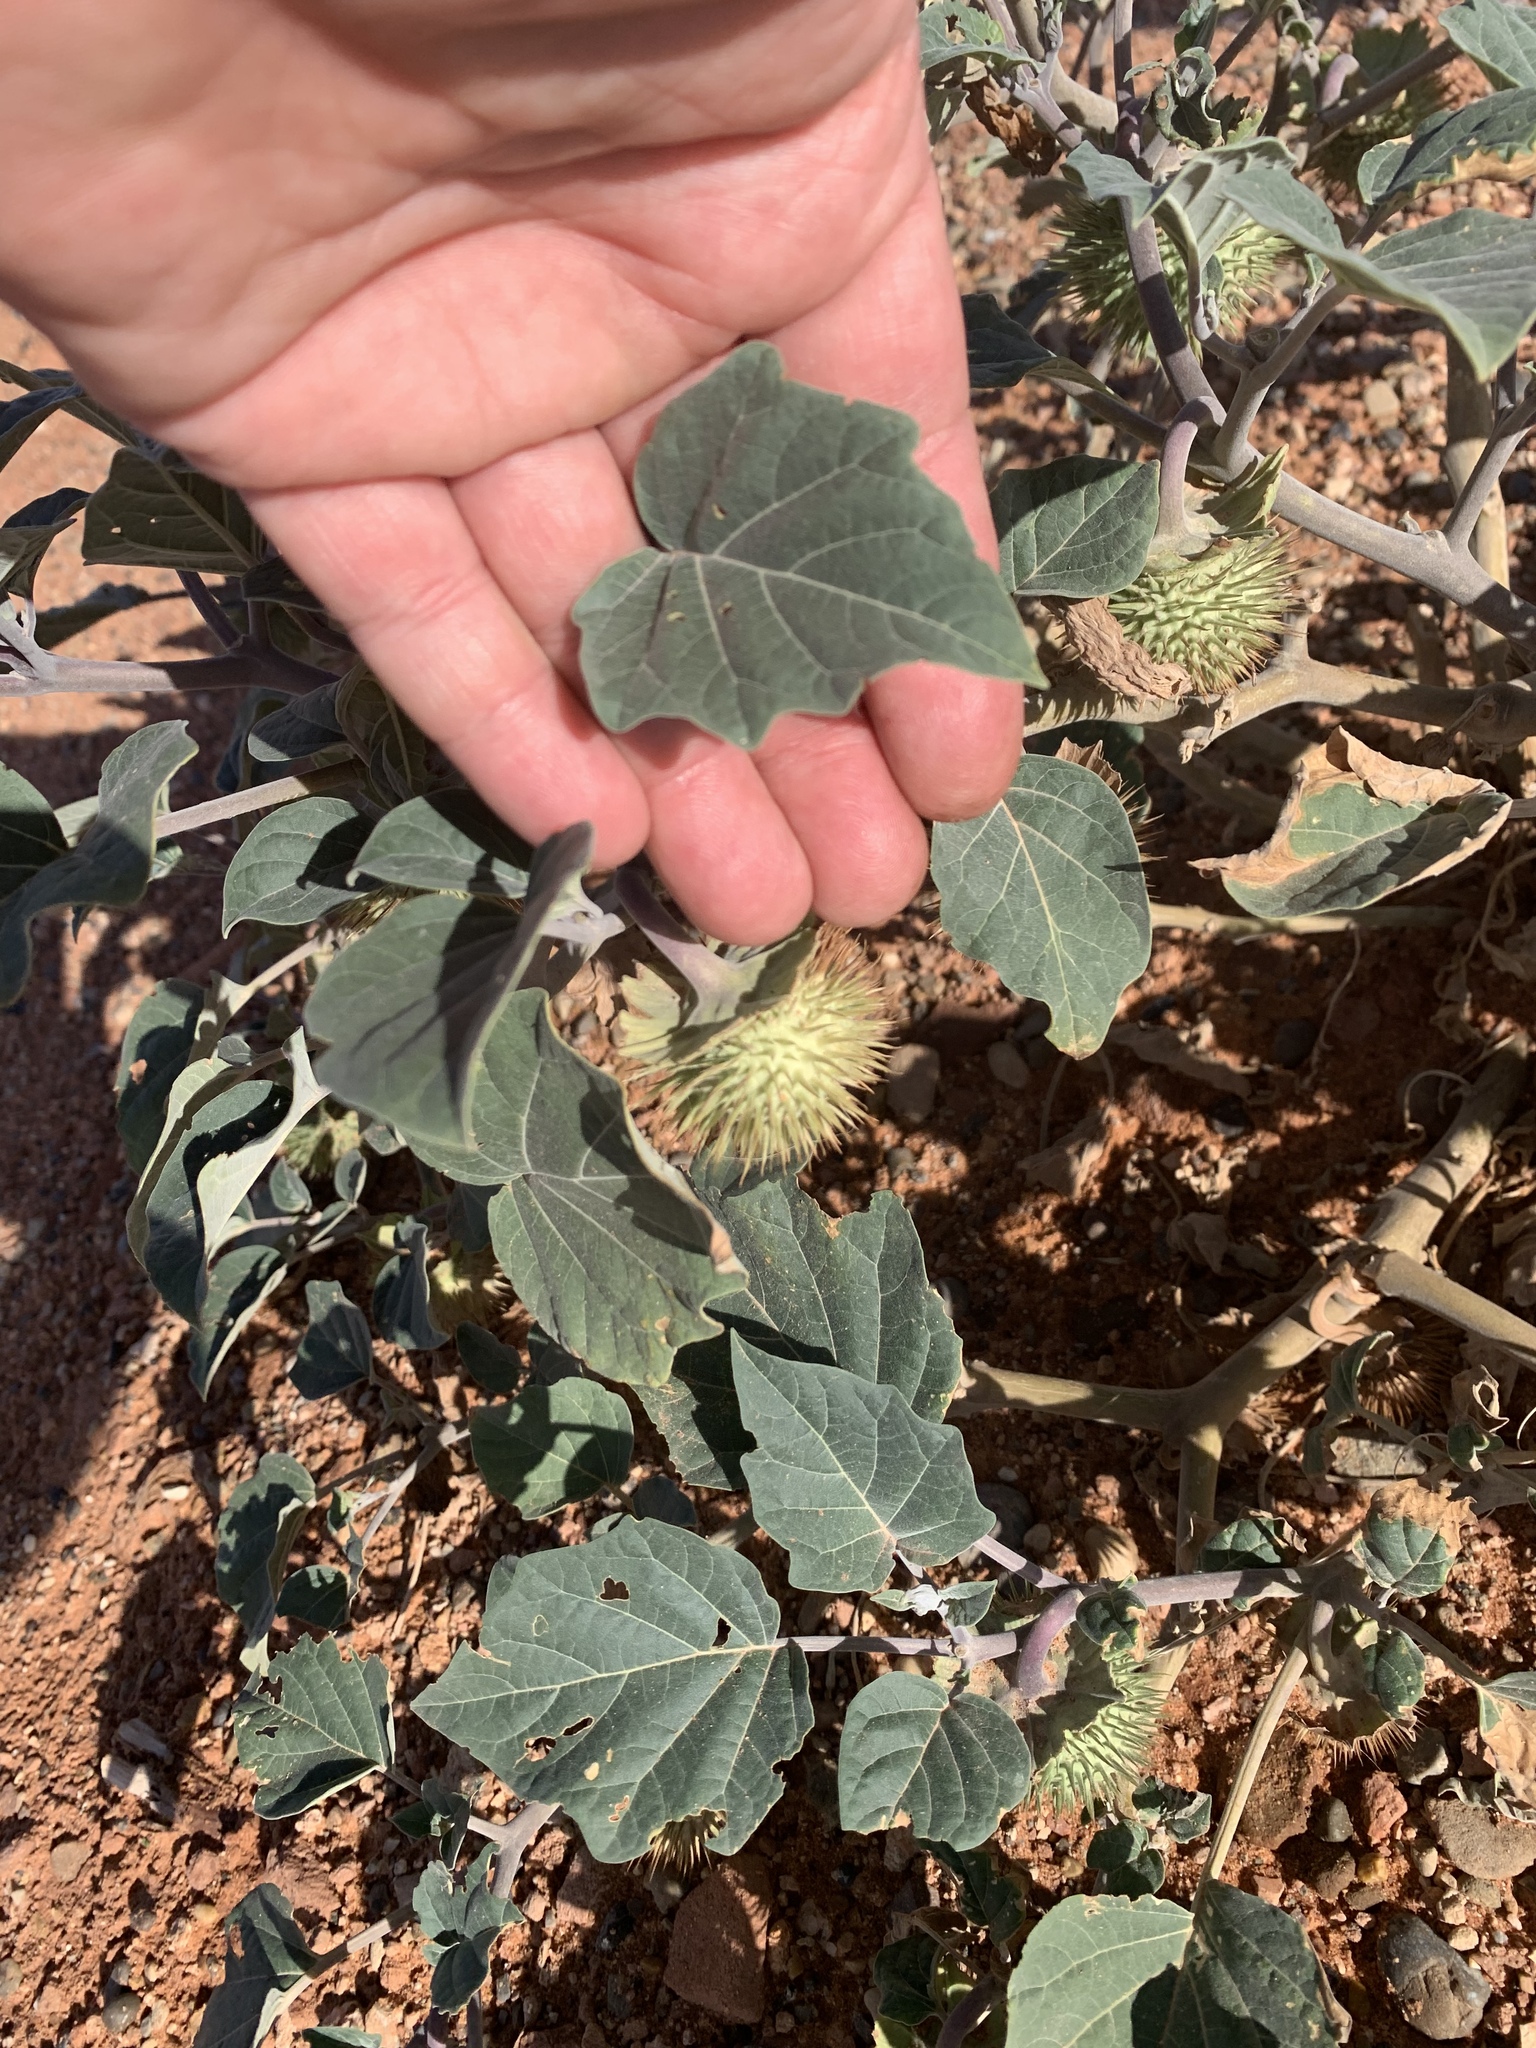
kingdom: Plantae
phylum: Tracheophyta
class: Magnoliopsida
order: Solanales
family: Solanaceae
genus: Datura
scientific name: Datura wrightii
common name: Sacred thorn-apple
